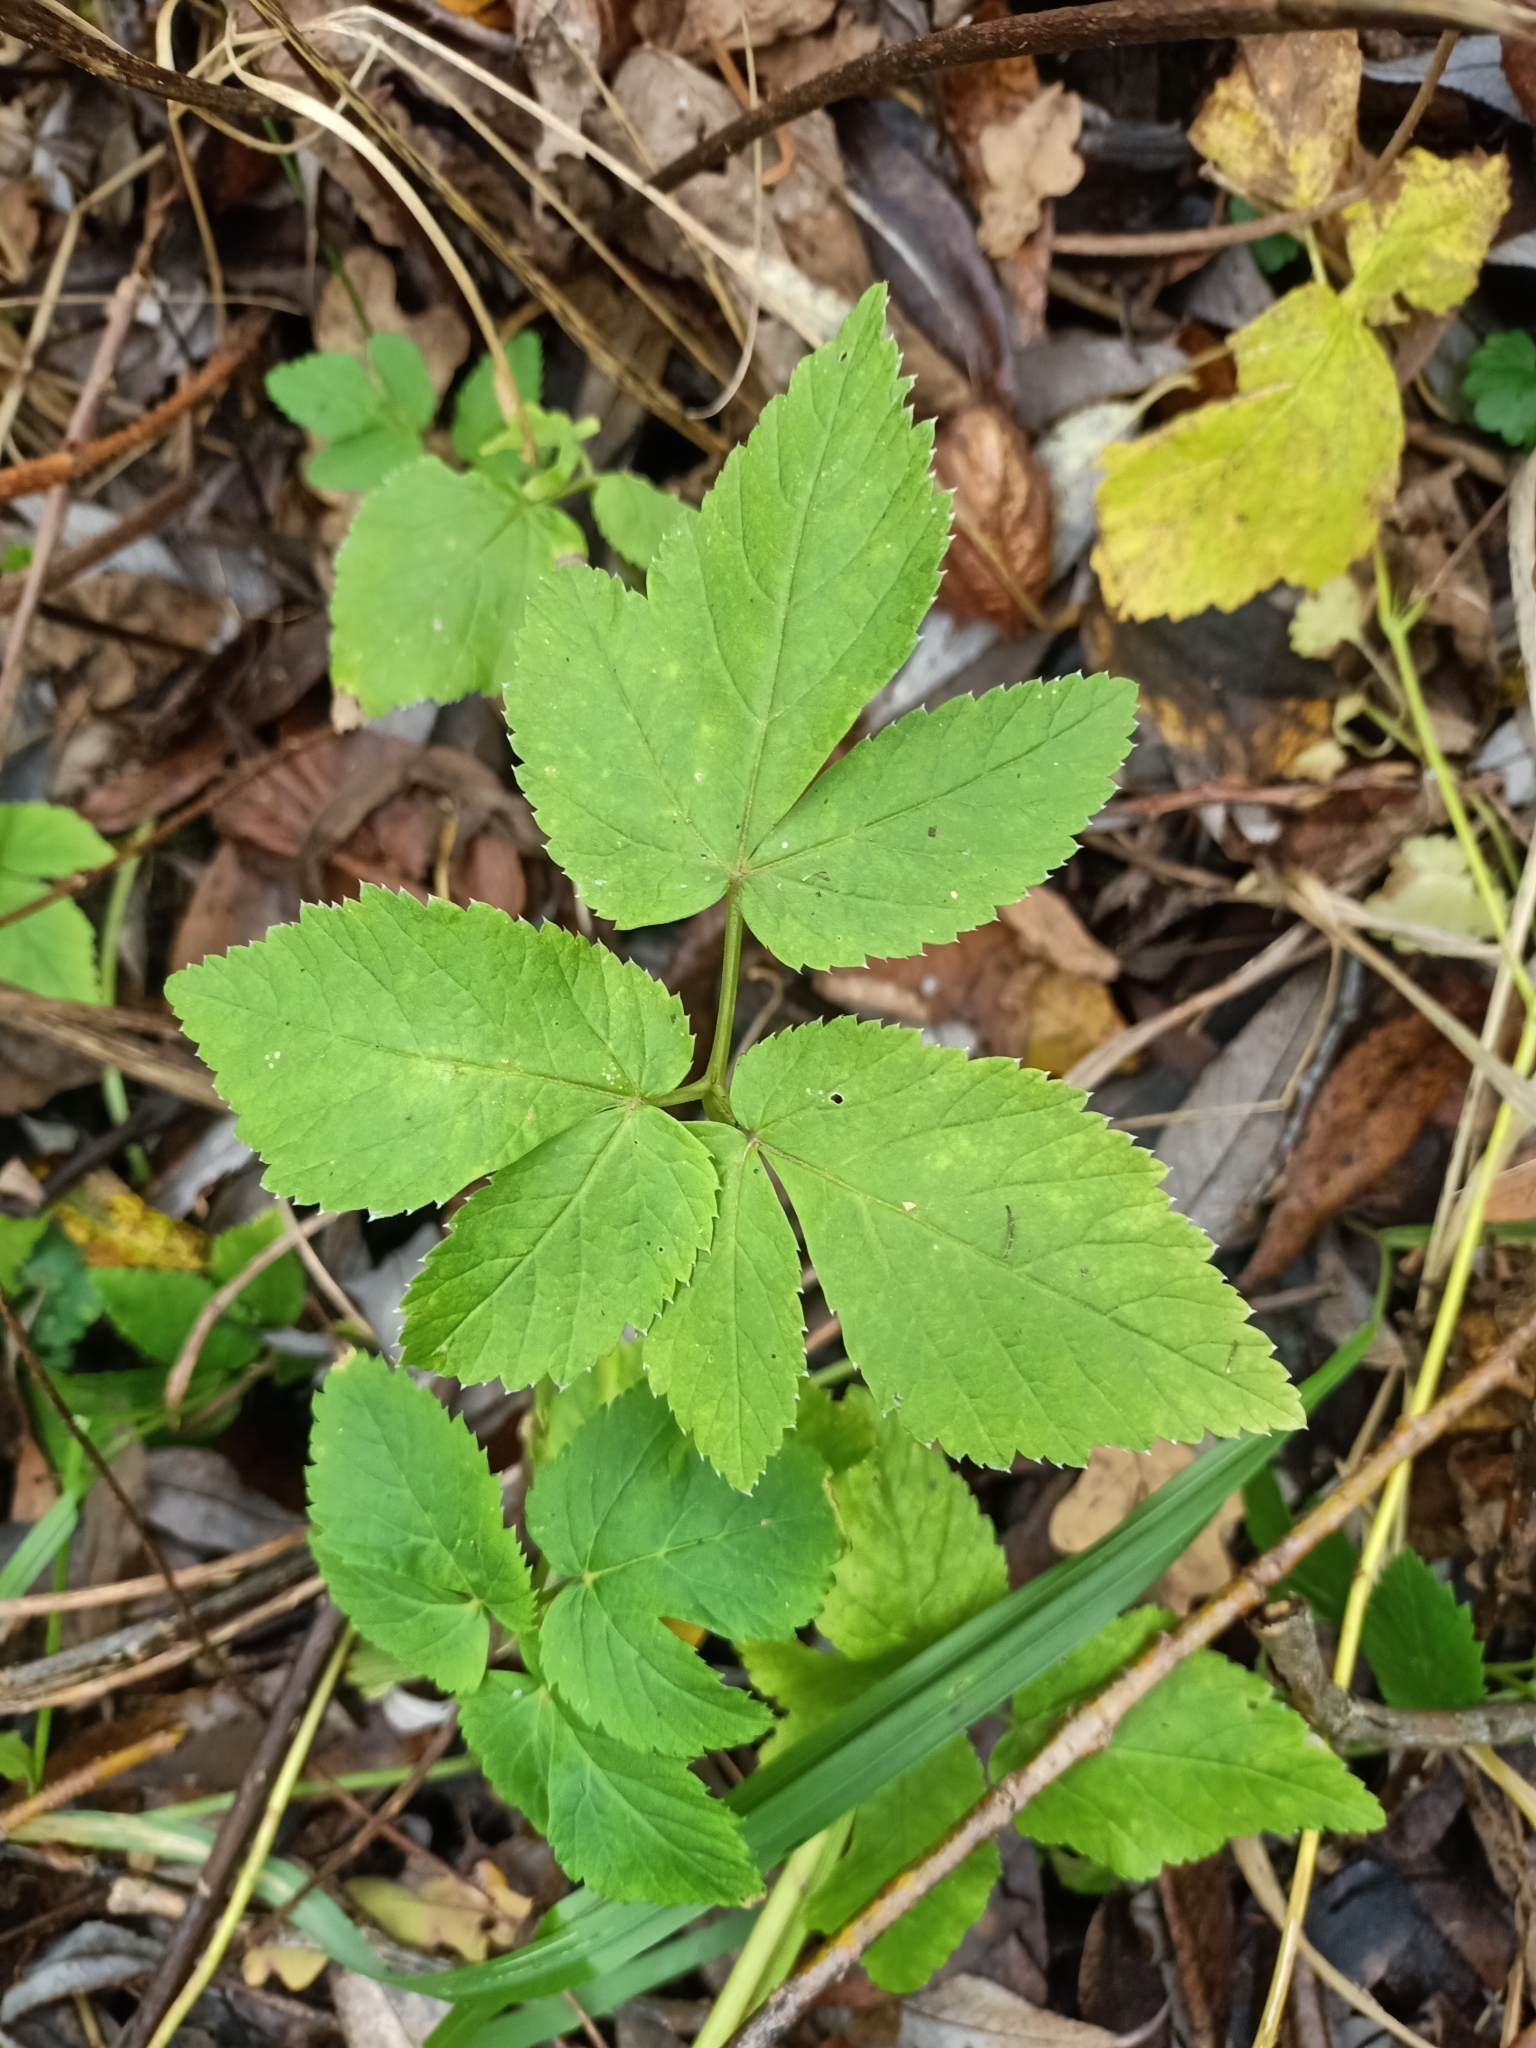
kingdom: Plantae
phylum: Tracheophyta
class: Magnoliopsida
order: Apiales
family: Apiaceae
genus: Aegopodium
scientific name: Aegopodium podagraria
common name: Ground-elder
